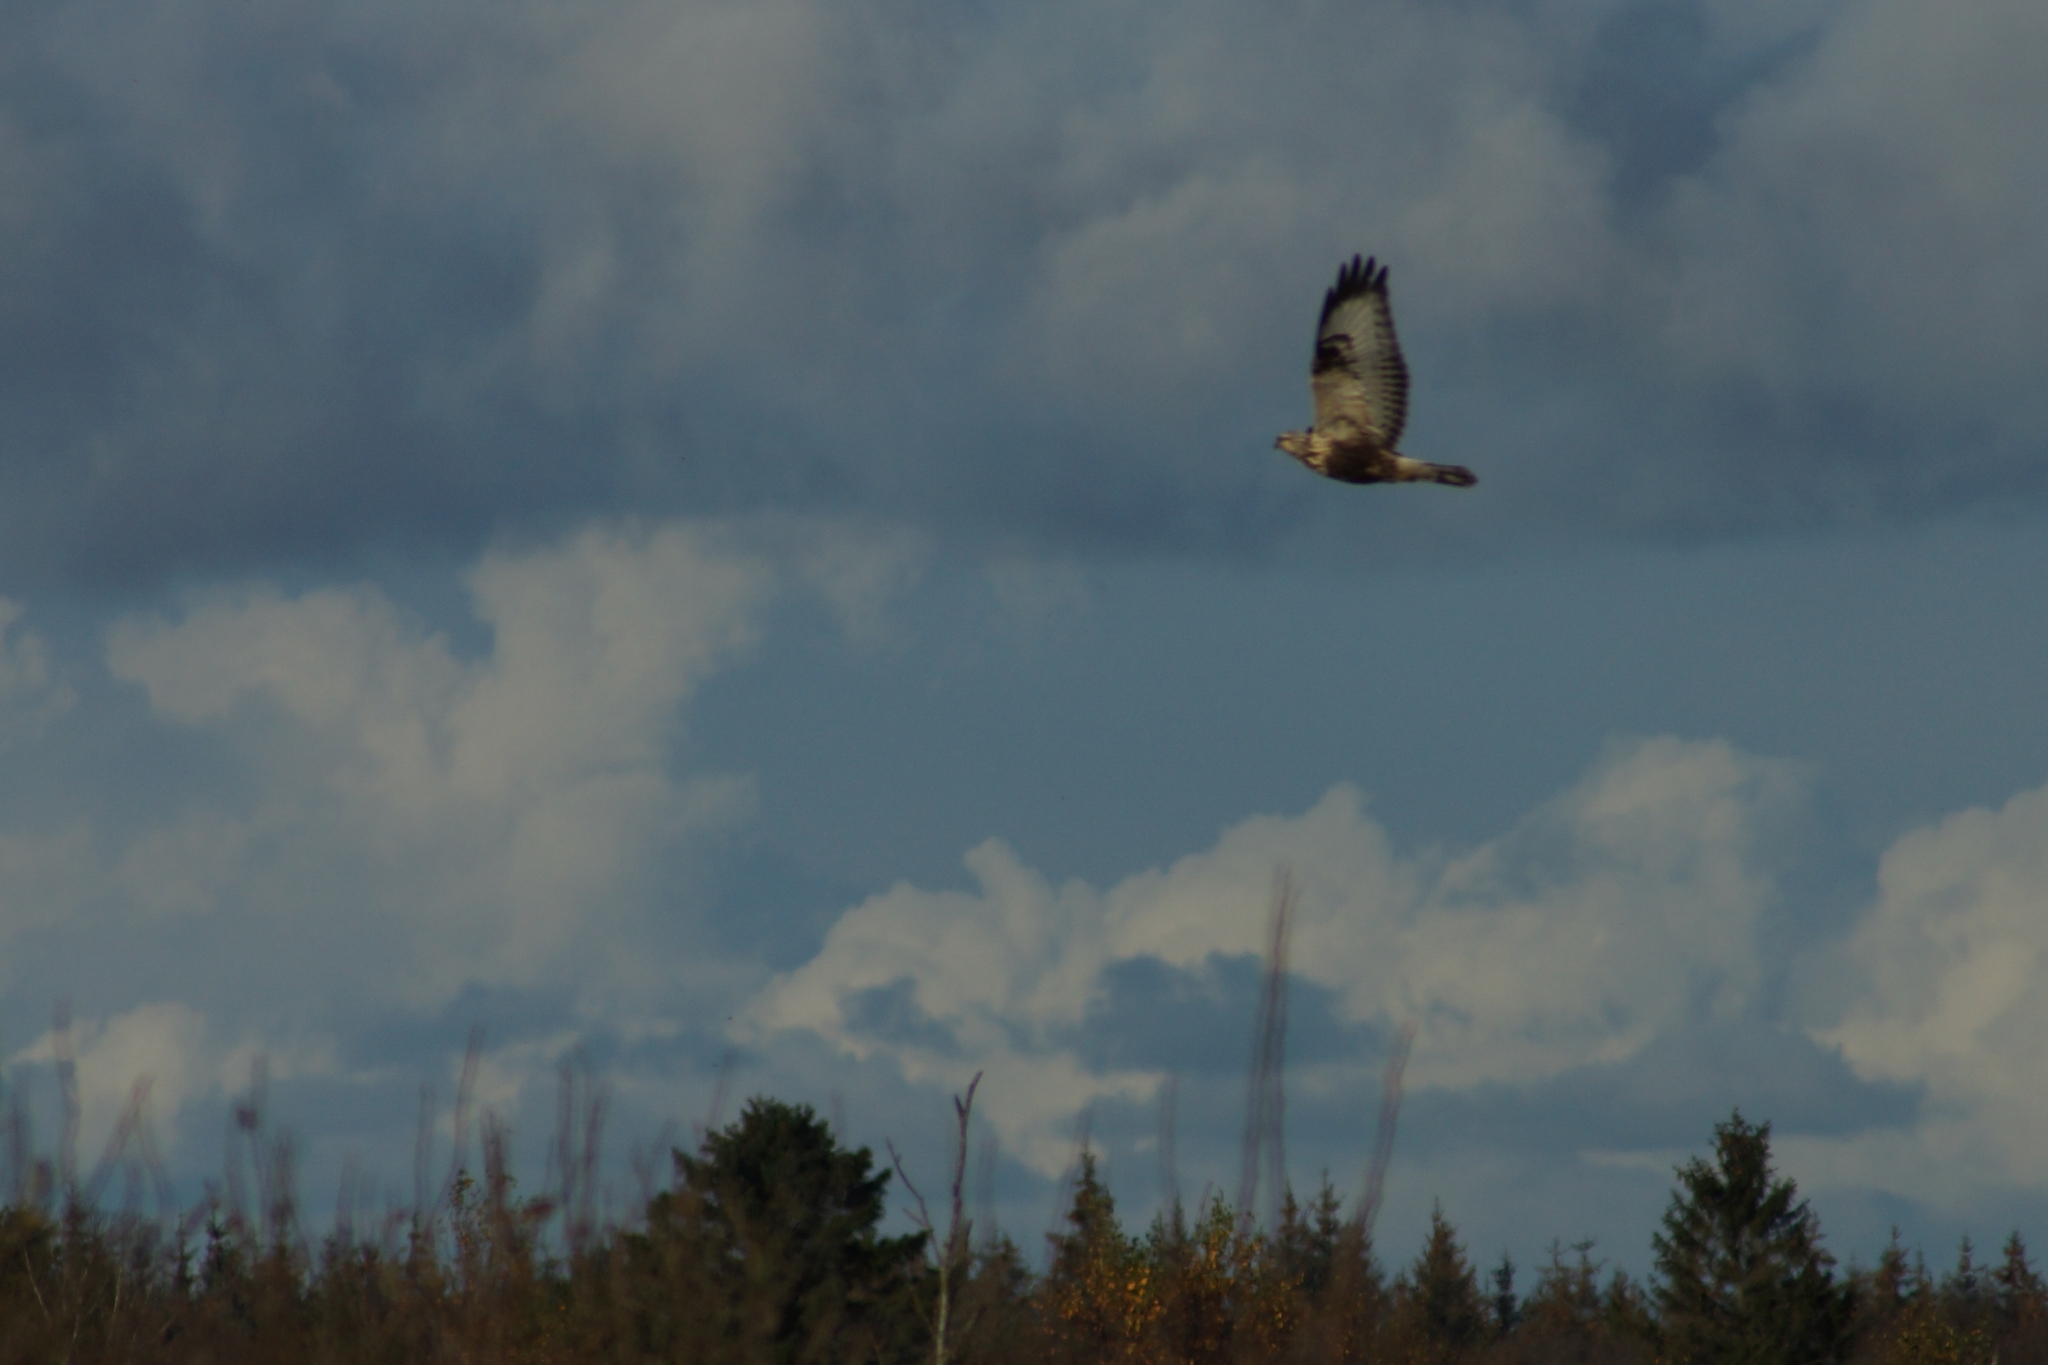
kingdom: Animalia
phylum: Chordata
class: Aves
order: Accipitriformes
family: Accipitridae
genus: Buteo
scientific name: Buteo lagopus
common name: Rough-legged buzzard
